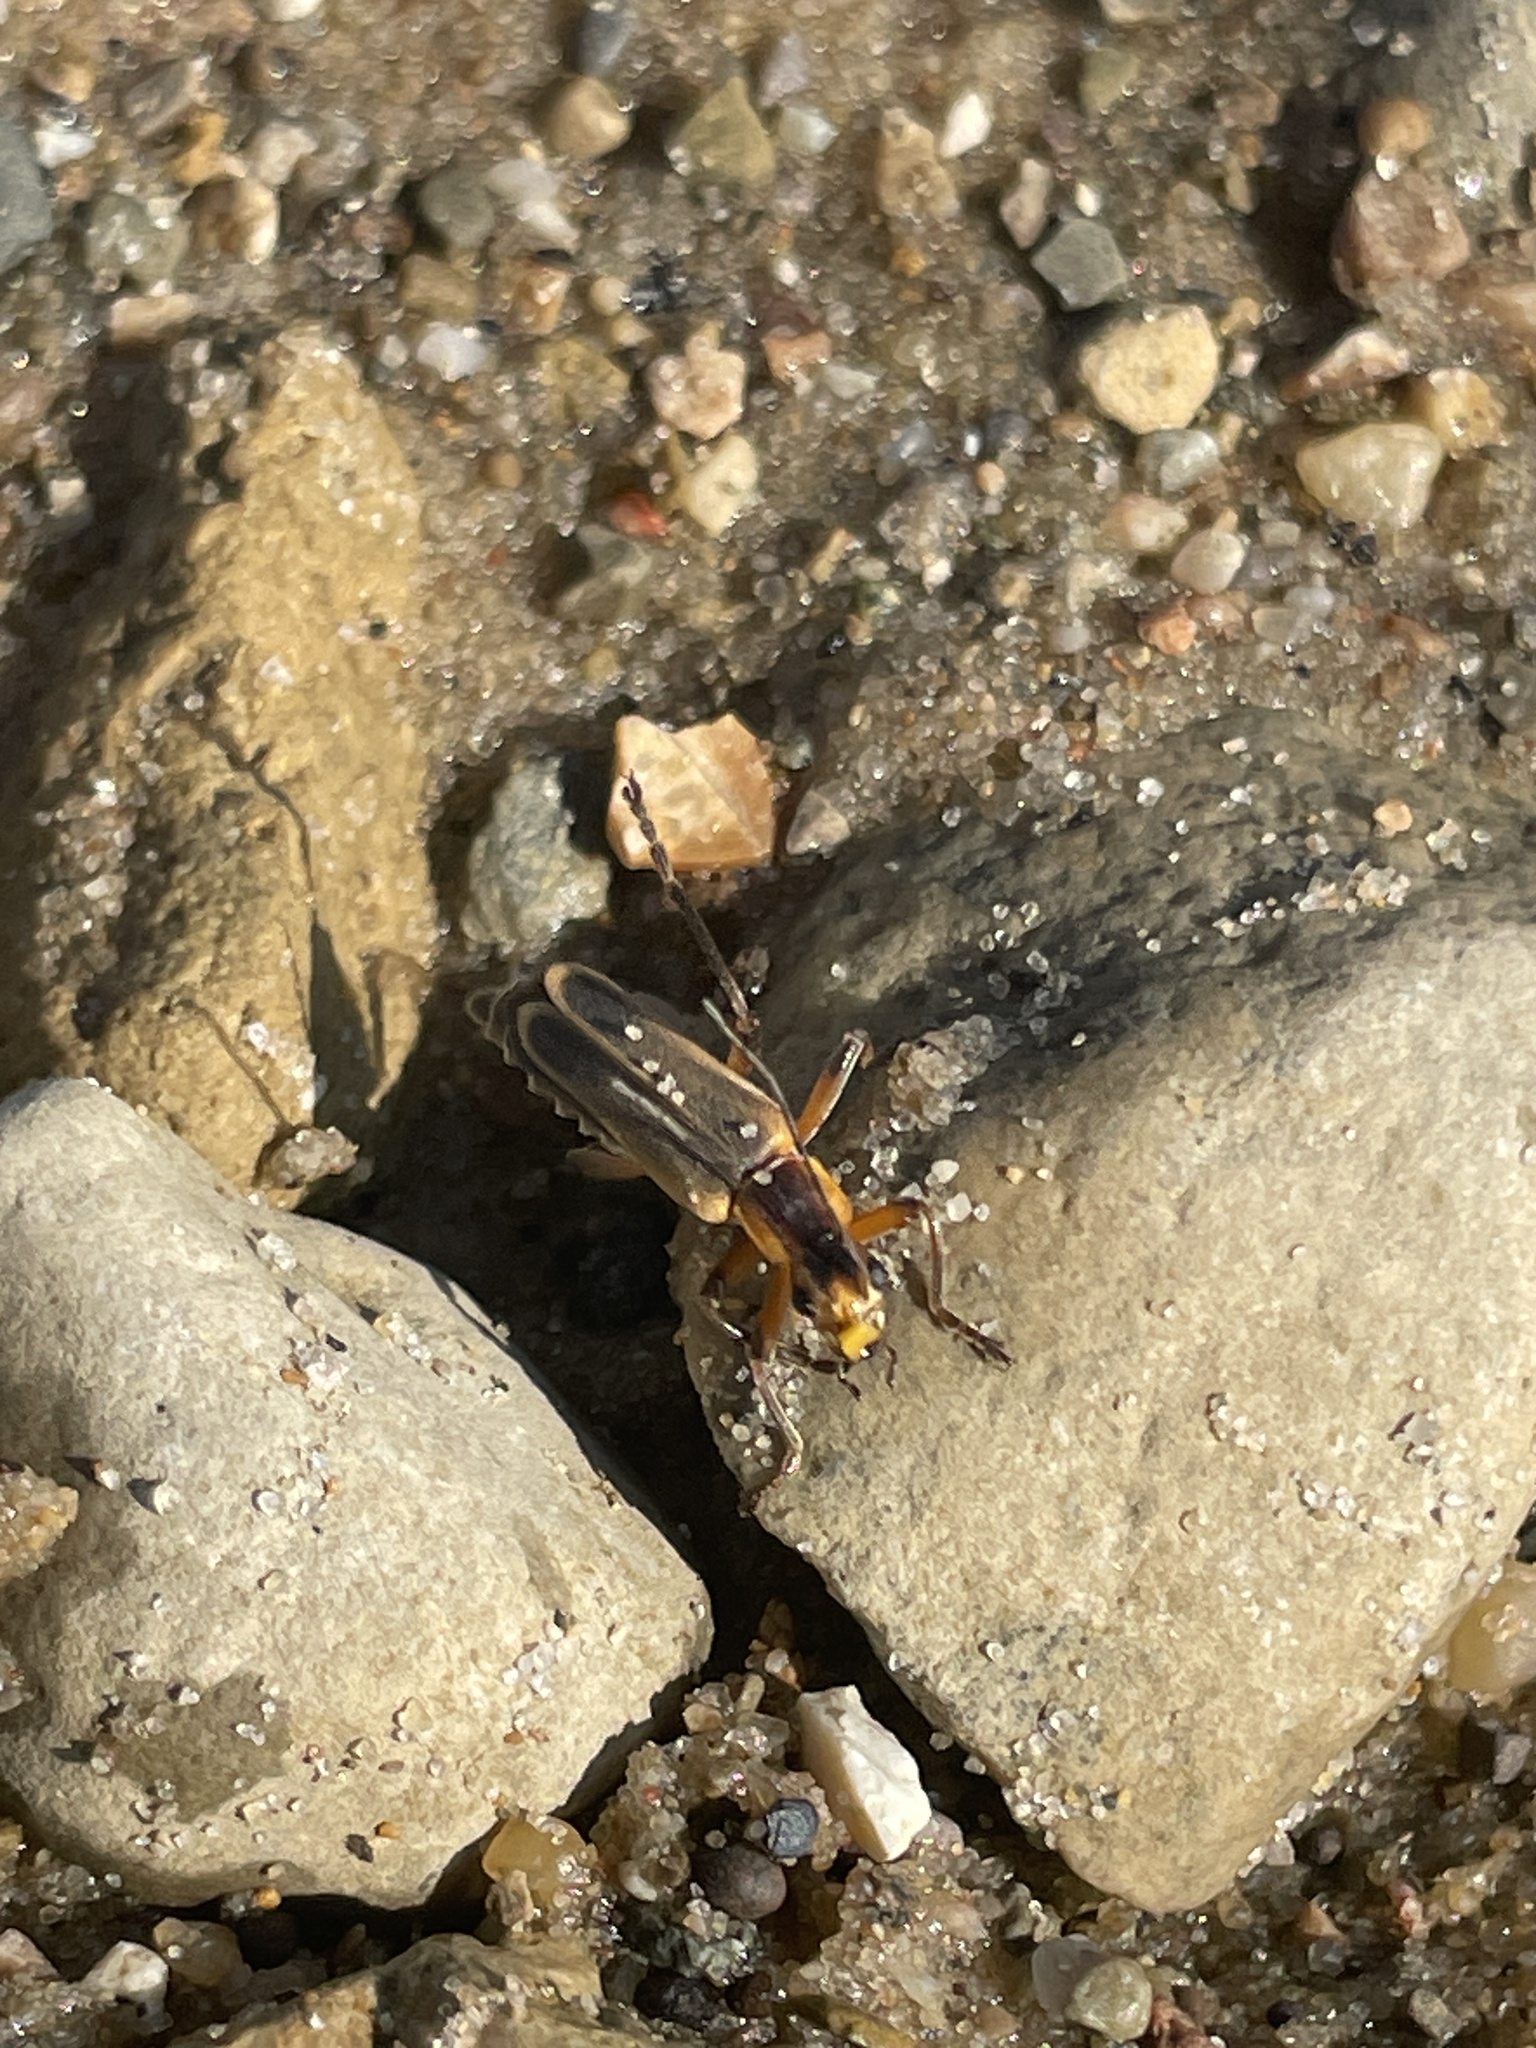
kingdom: Animalia
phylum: Arthropoda
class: Insecta
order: Coleoptera
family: Cantharidae
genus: Chauliognathus
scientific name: Chauliognathus marginatus
